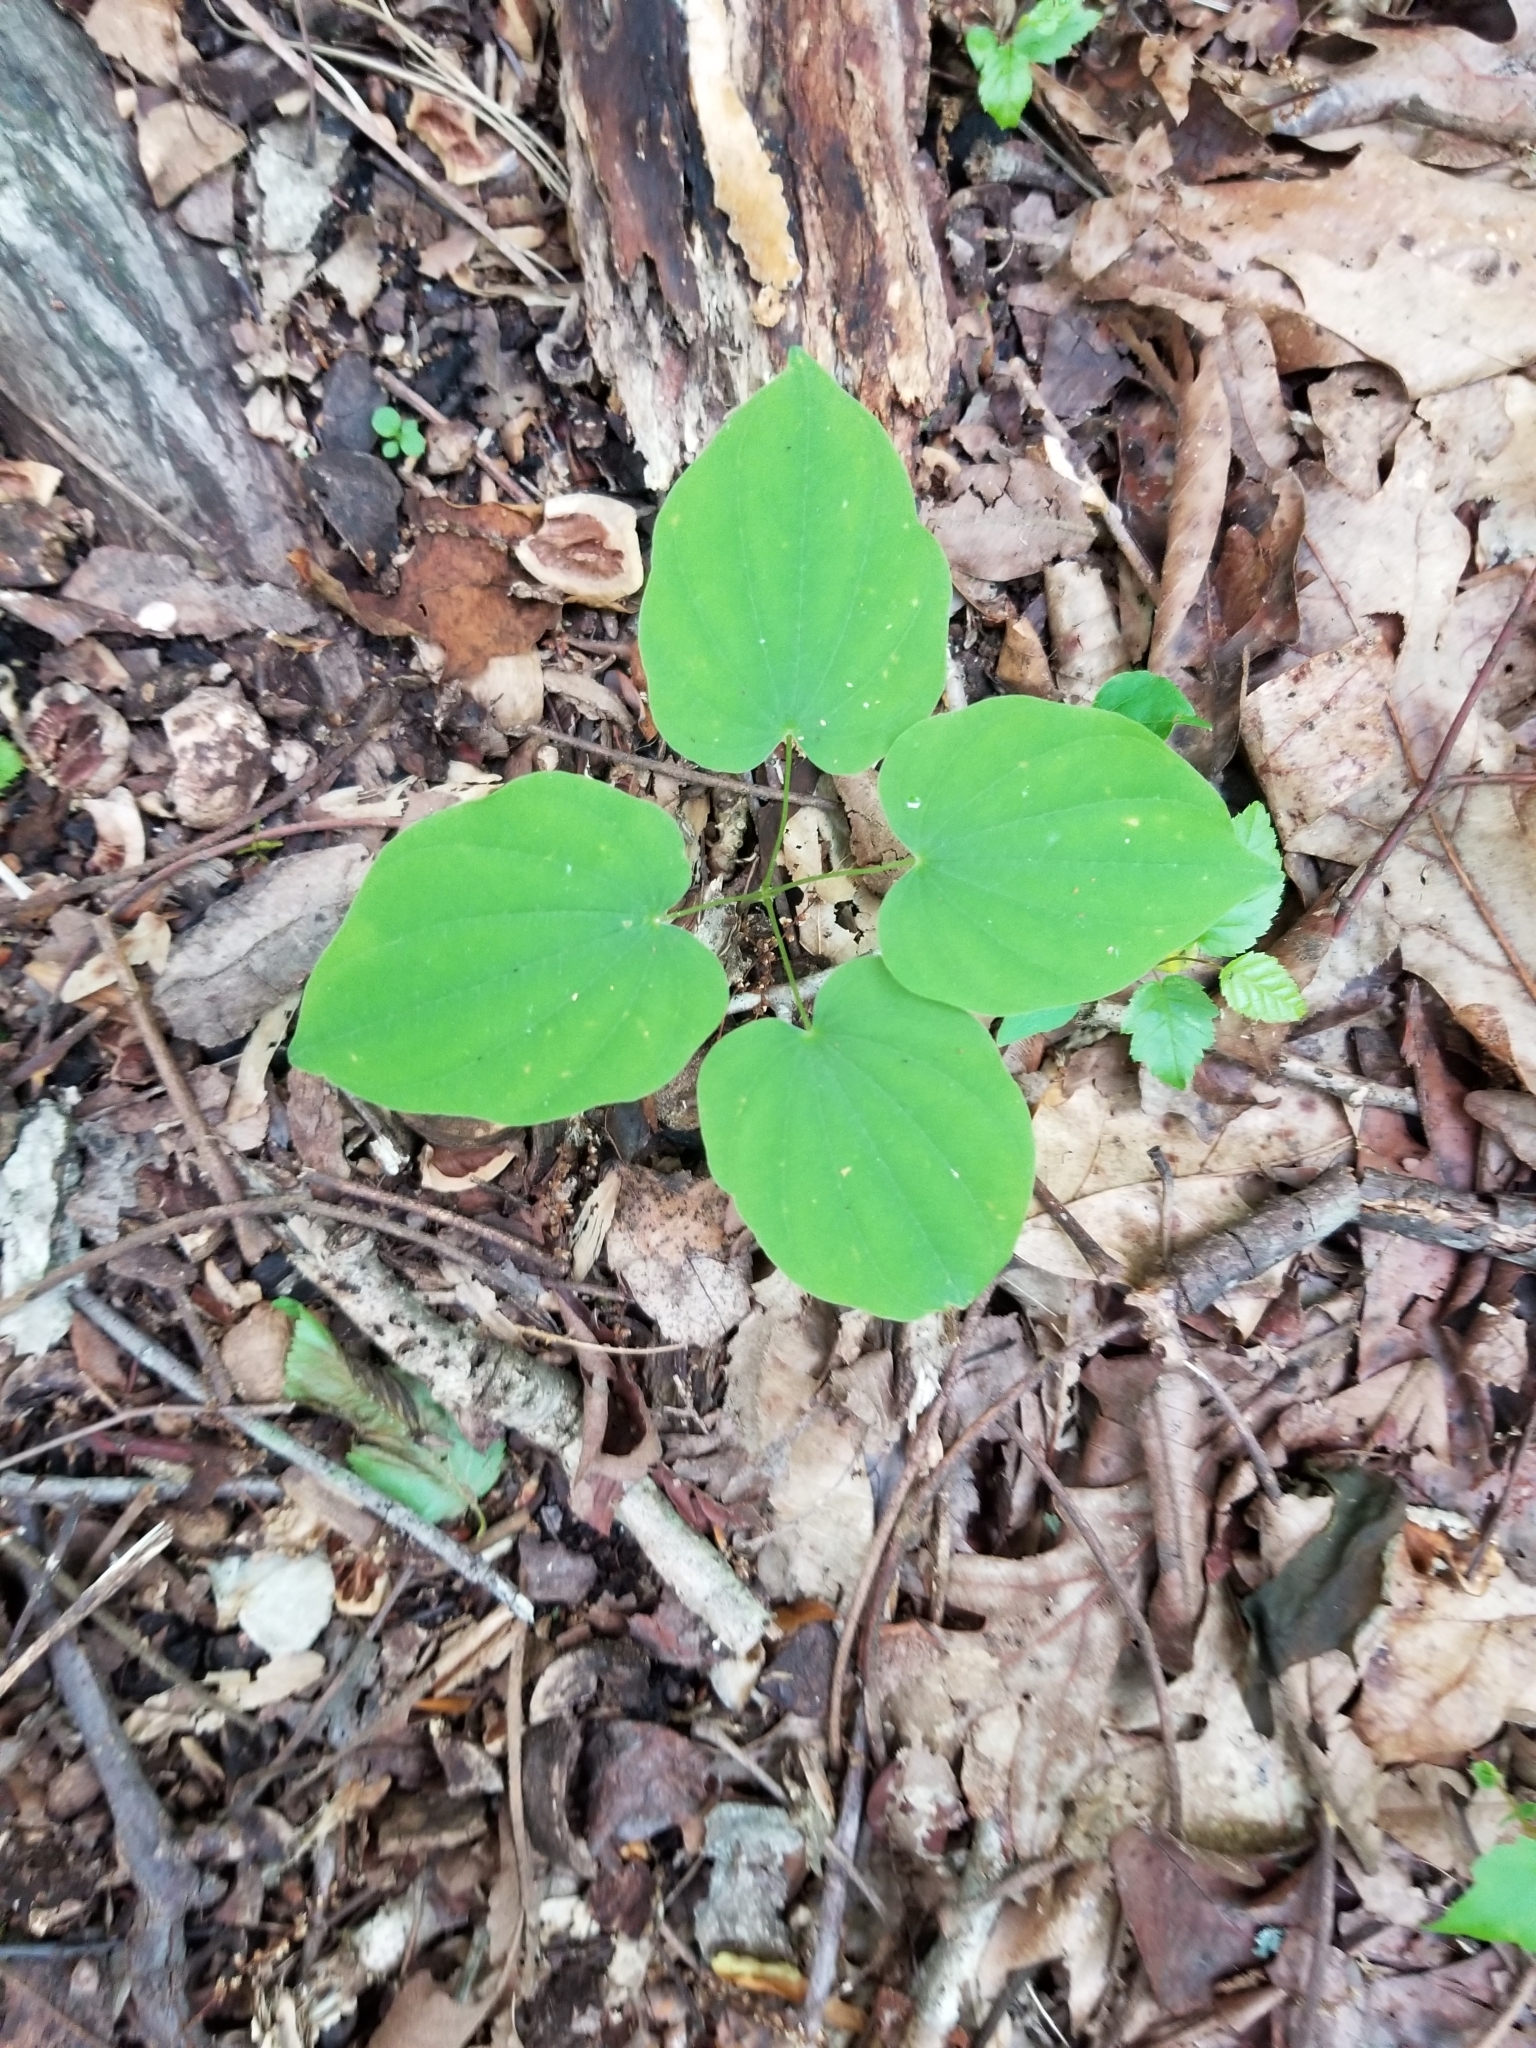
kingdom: Plantae
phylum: Tracheophyta
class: Liliopsida
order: Dioscoreales
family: Dioscoreaceae
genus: Dioscorea
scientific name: Dioscorea villosa
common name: Wild yam
